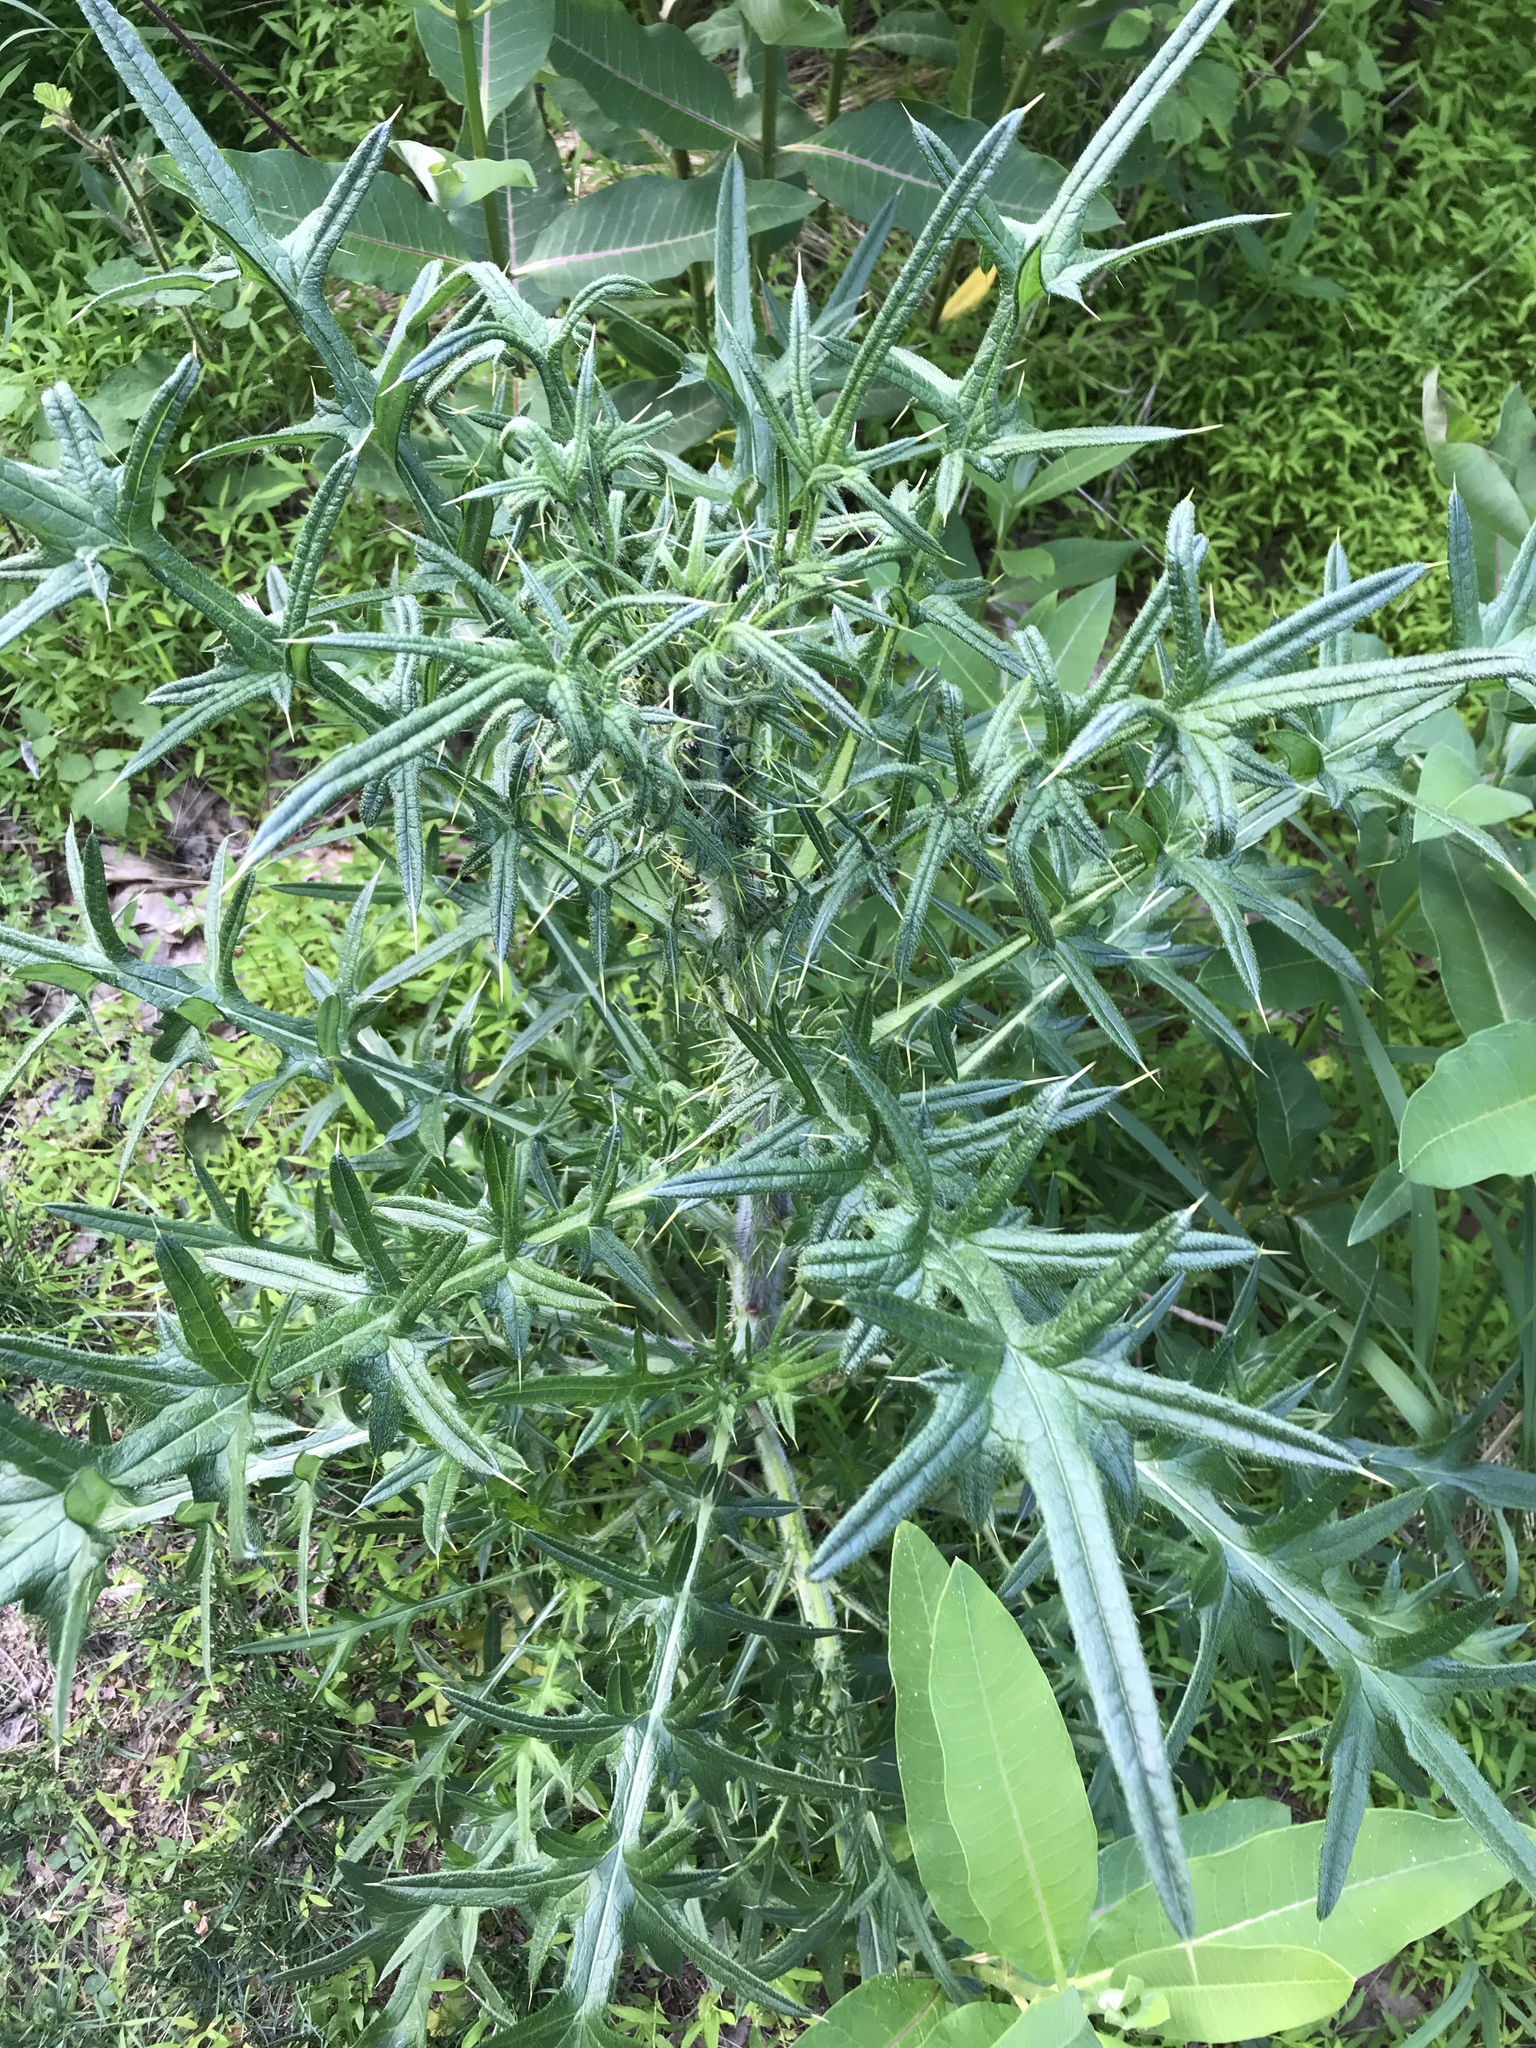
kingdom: Plantae
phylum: Tracheophyta
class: Magnoliopsida
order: Asterales
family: Asteraceae
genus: Cirsium
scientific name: Cirsium vulgare
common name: Bull thistle
